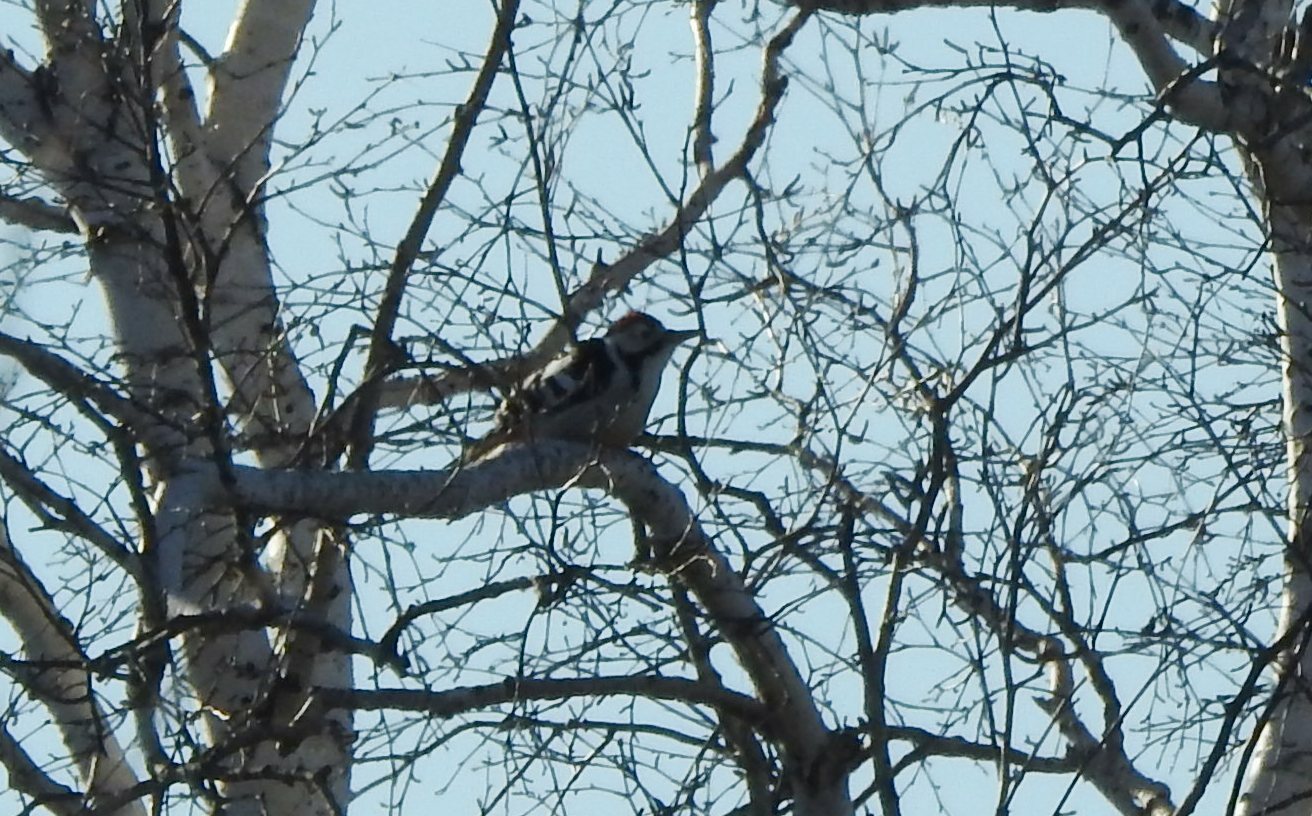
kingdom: Animalia
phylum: Chordata
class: Aves
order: Piciformes
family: Picidae
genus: Dryobates
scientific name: Dryobates minor
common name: Lesser spotted woodpecker
